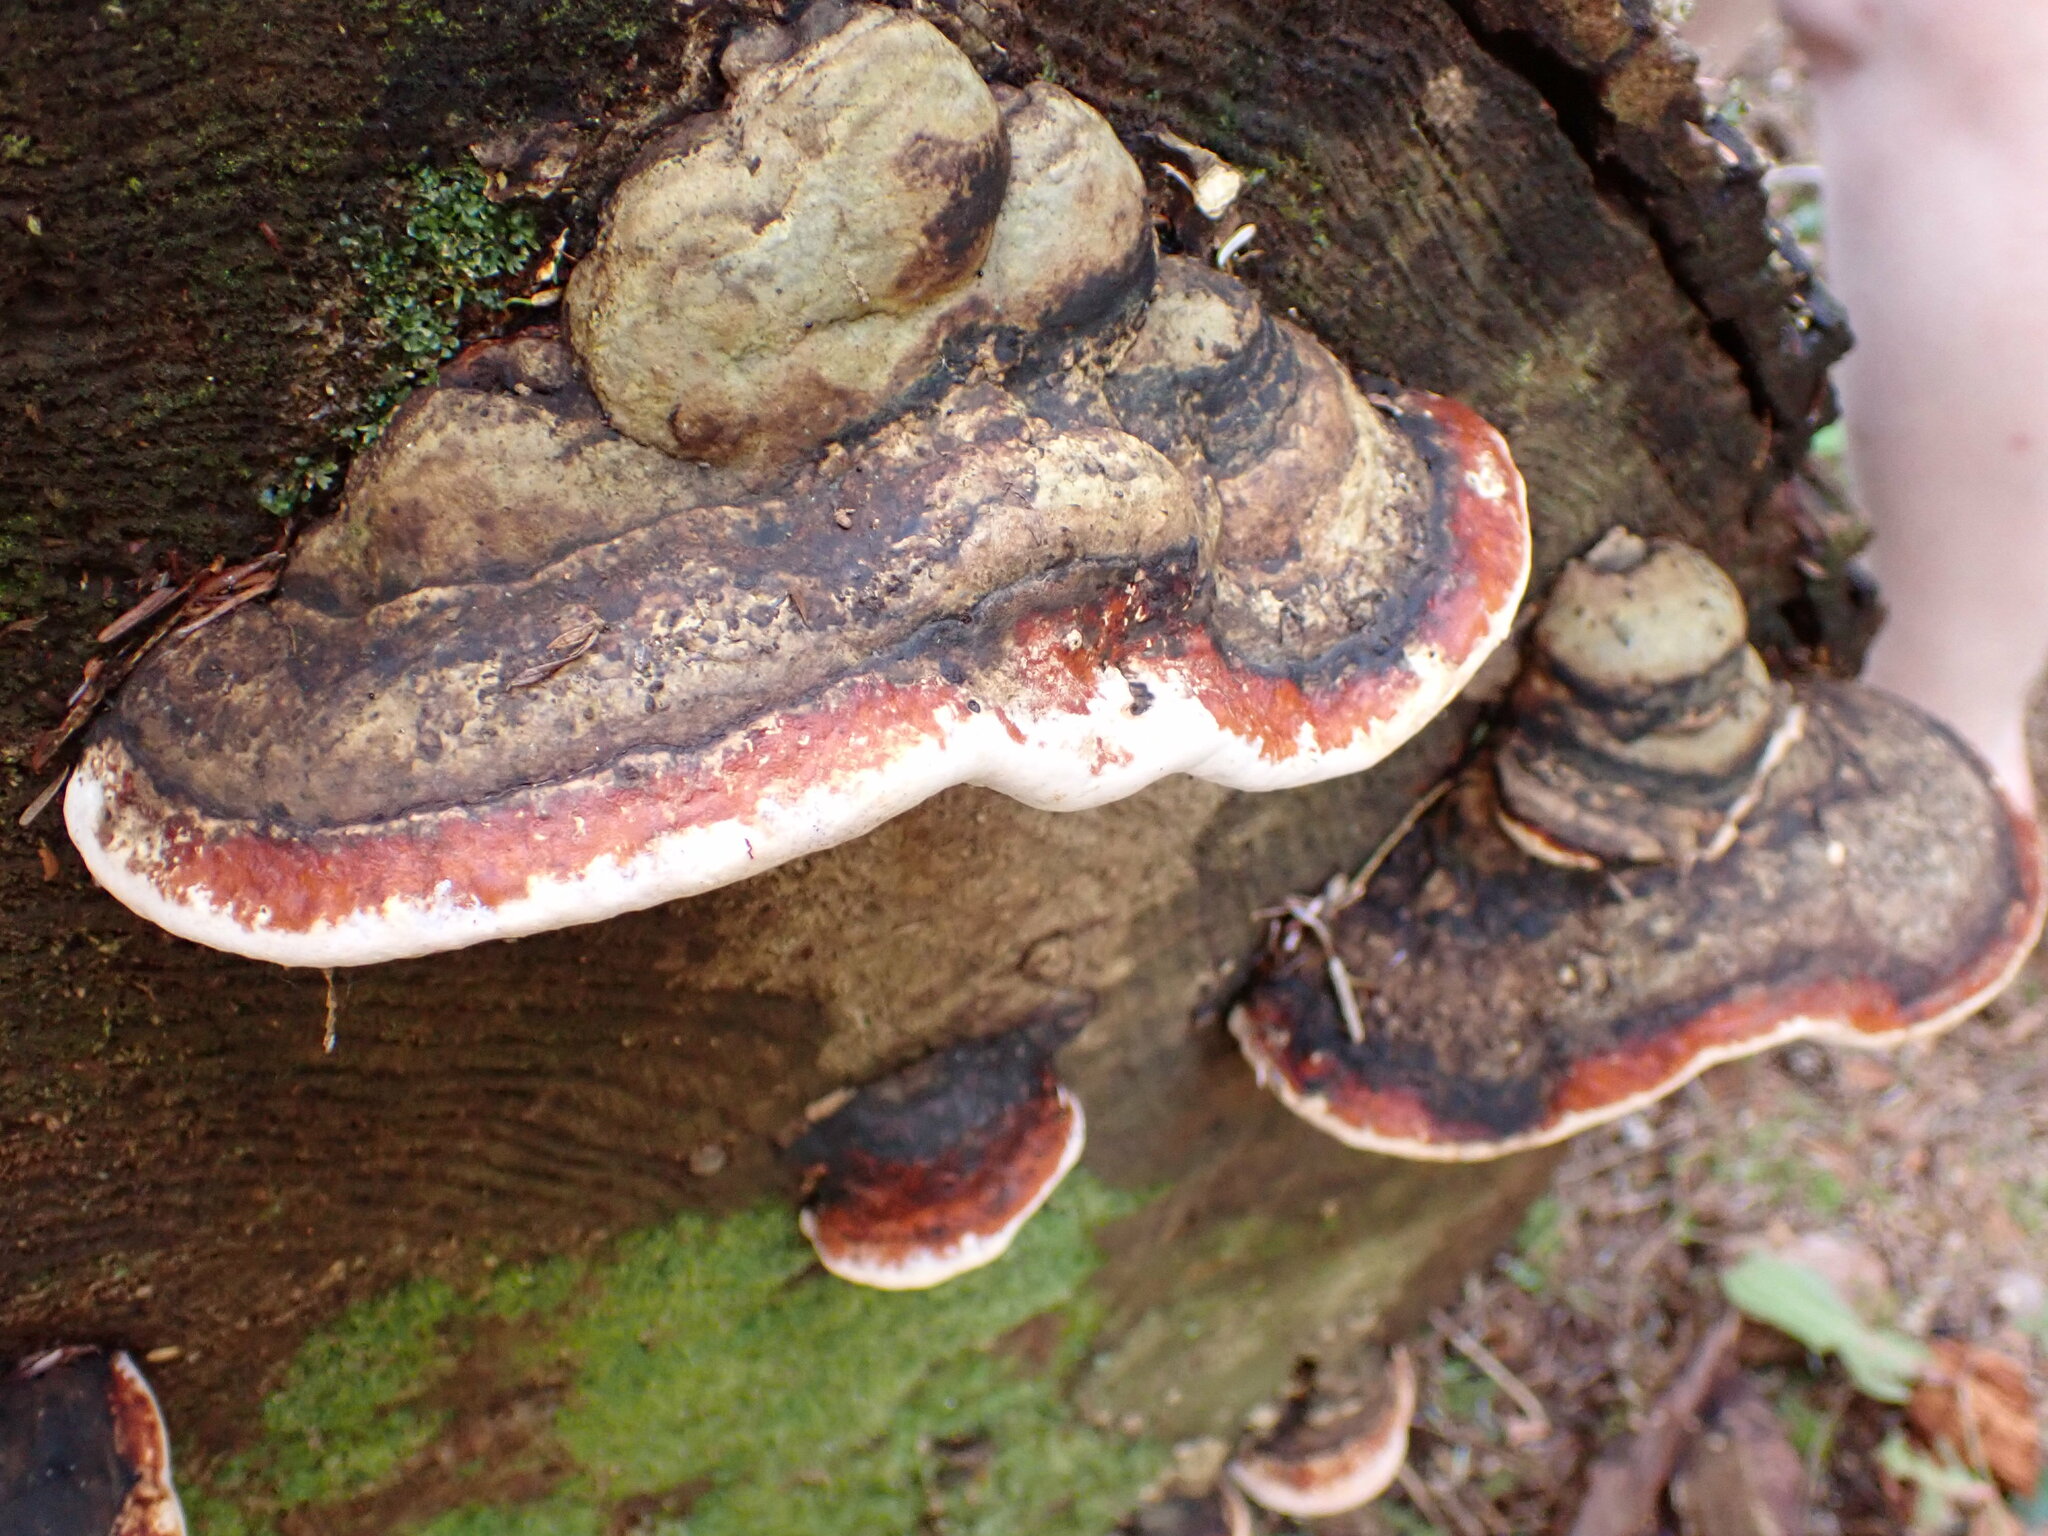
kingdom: Fungi
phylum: Basidiomycota
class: Agaricomycetes
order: Polyporales
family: Fomitopsidaceae
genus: Fomitopsis
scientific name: Fomitopsis mounceae
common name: Northern red belt
